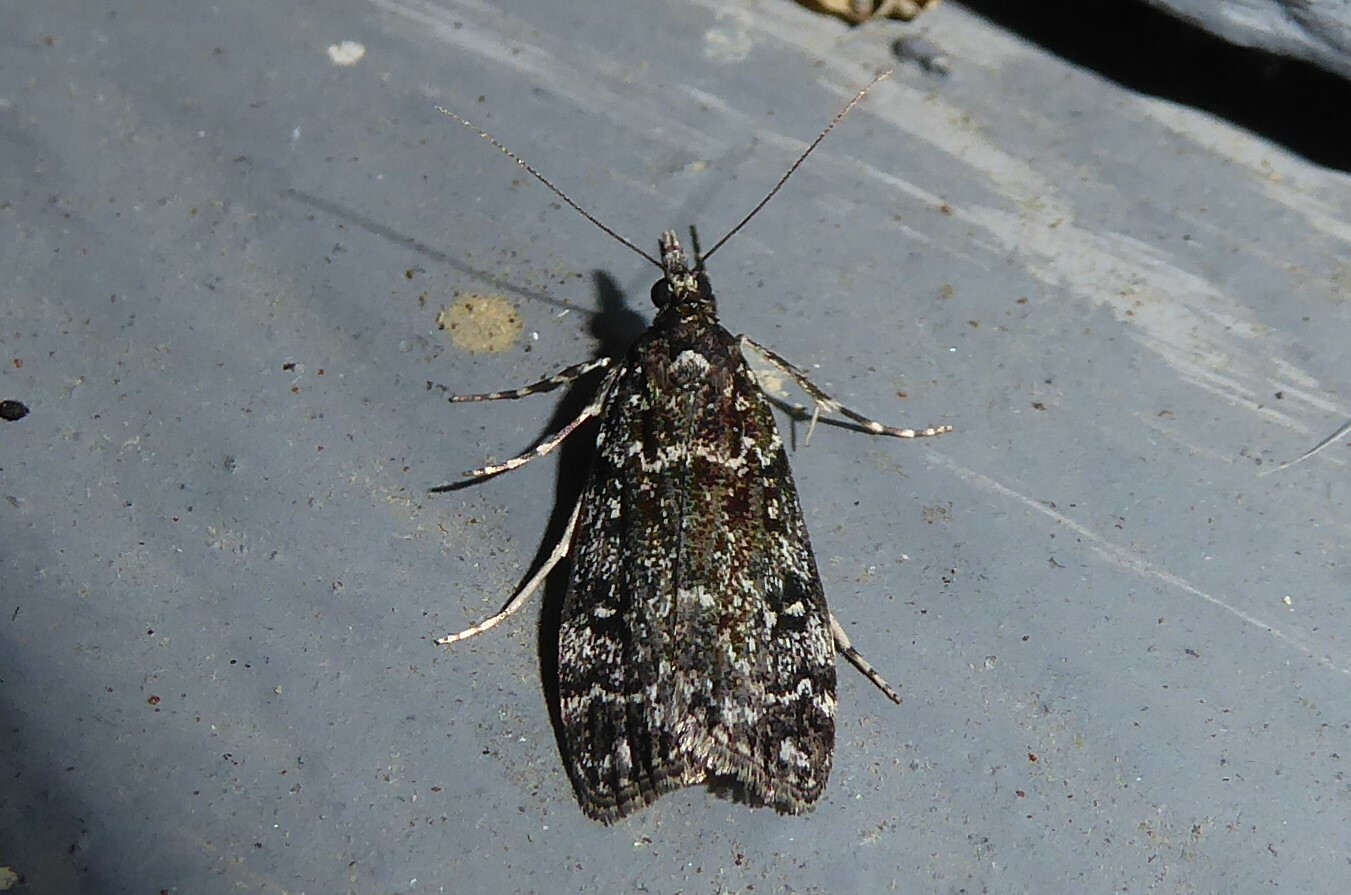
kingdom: Animalia
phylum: Arthropoda
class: Insecta
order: Lepidoptera
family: Crambidae
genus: Eudonia
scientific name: Eudonia philerga
